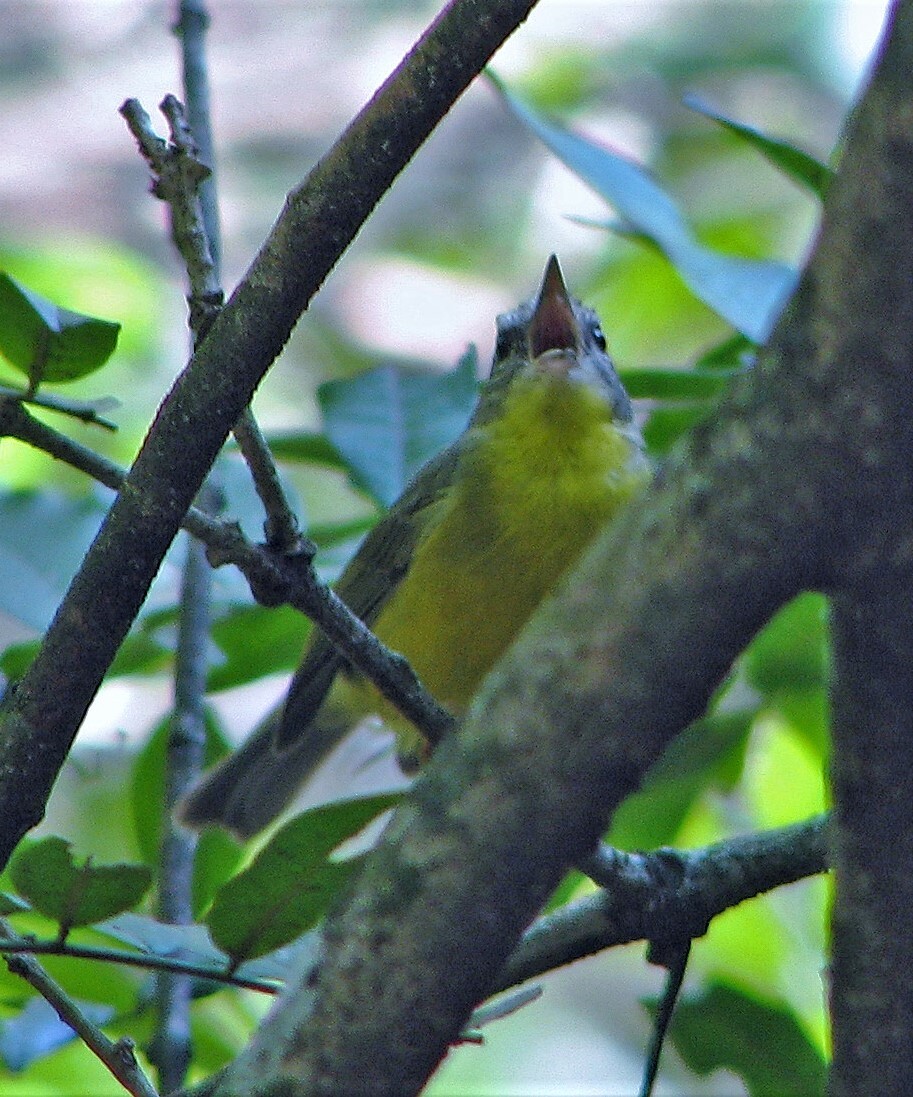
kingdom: Animalia
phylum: Chordata
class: Aves
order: Passeriformes
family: Parulidae
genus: Basileuterus
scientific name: Basileuterus culicivorus
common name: Golden-crowned warbler
